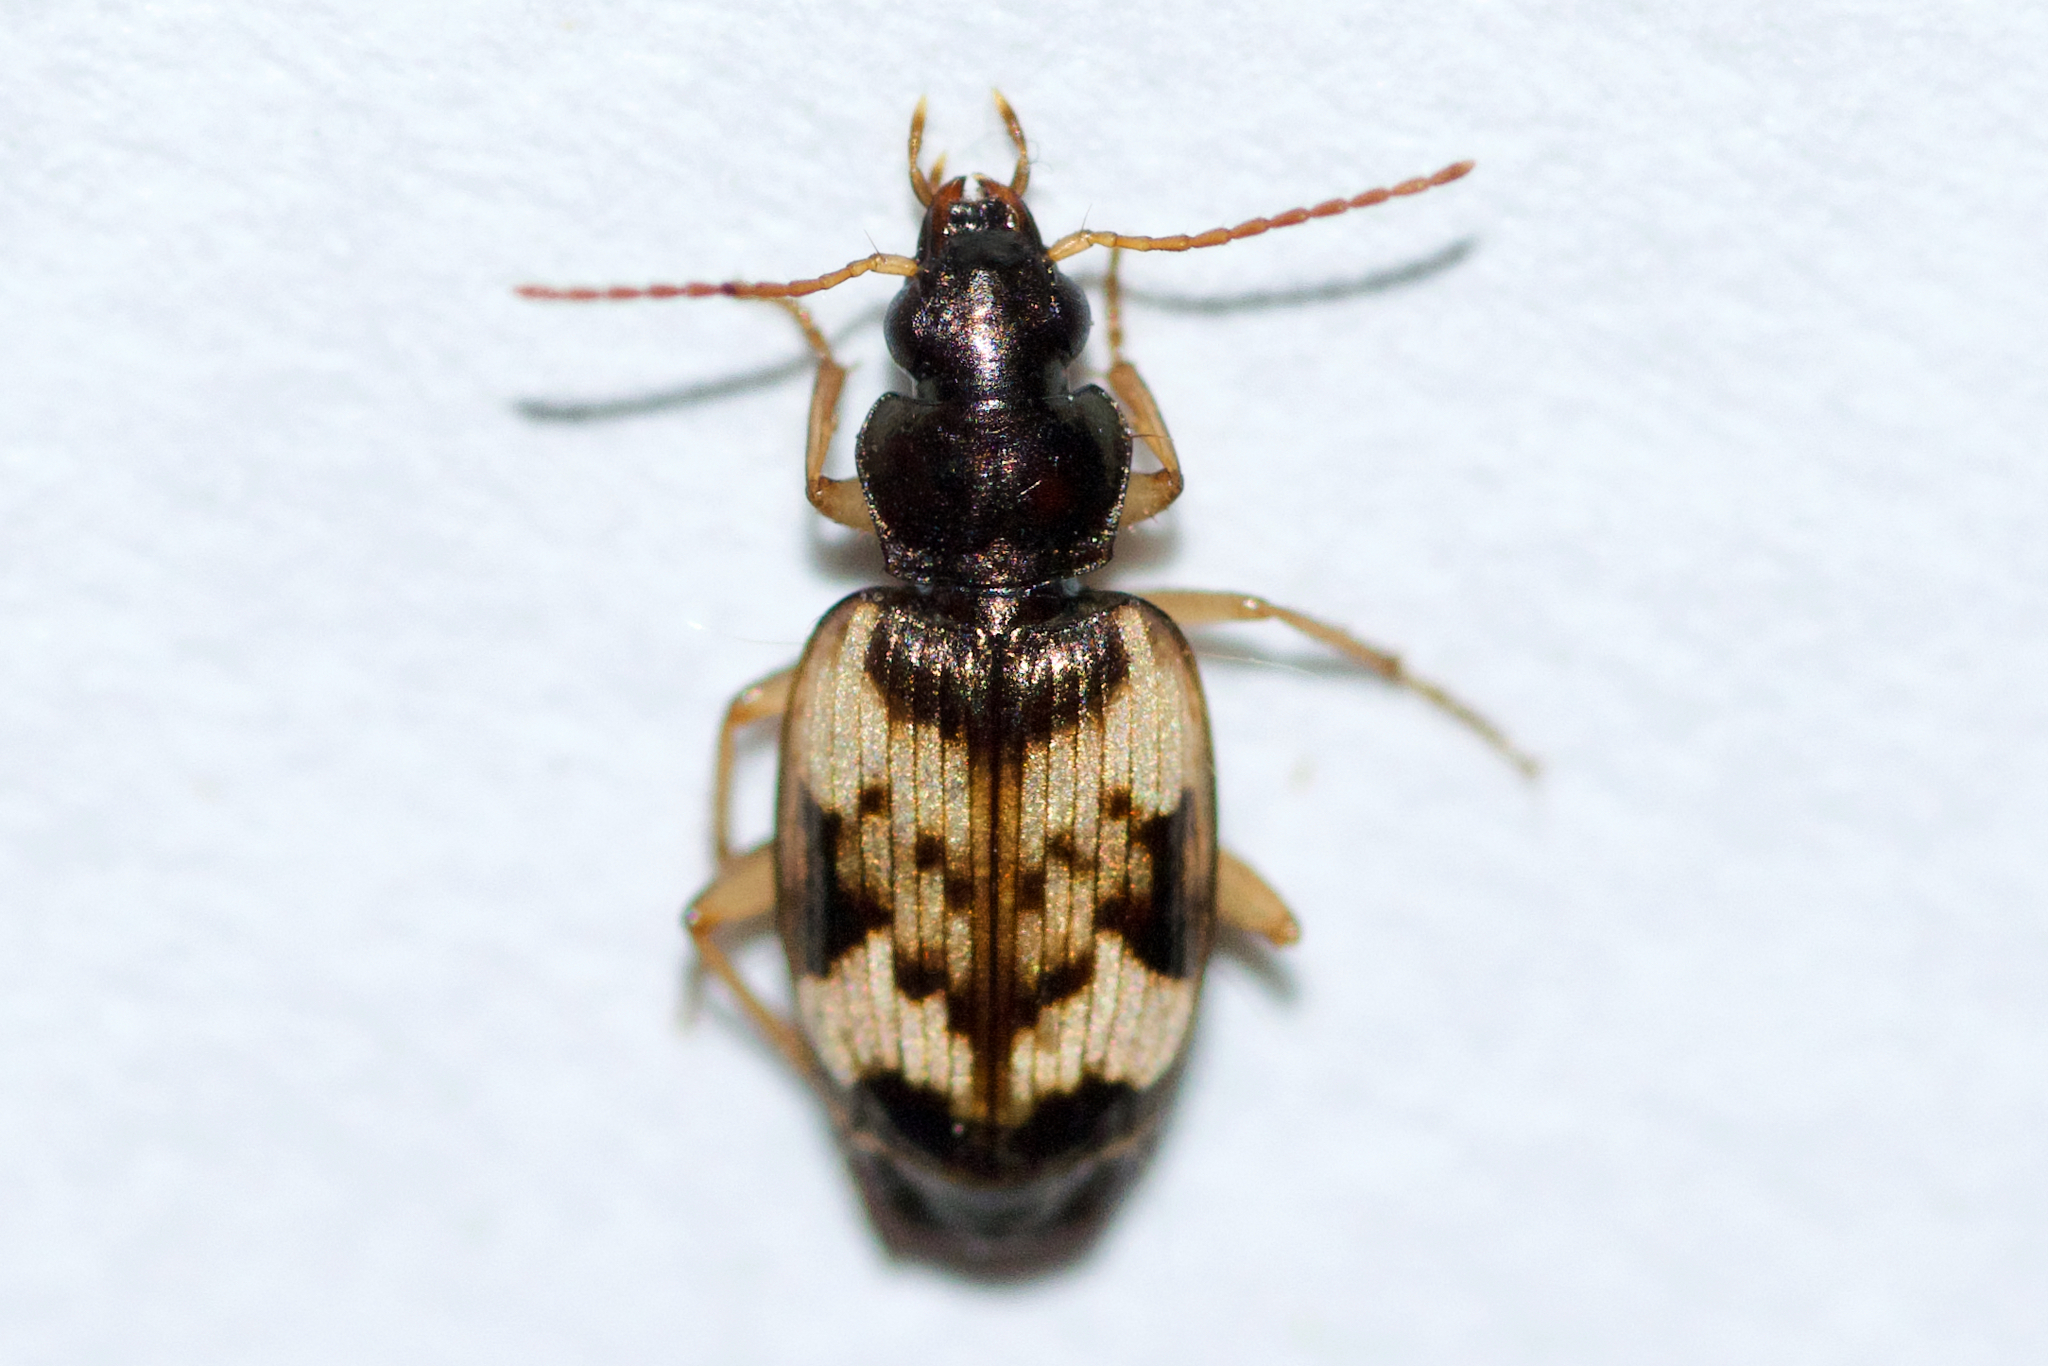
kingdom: Animalia
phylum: Arthropoda
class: Insecta
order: Coleoptera
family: Carabidae
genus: Tetragonoderus
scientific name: Tetragonoderus fasciatus
